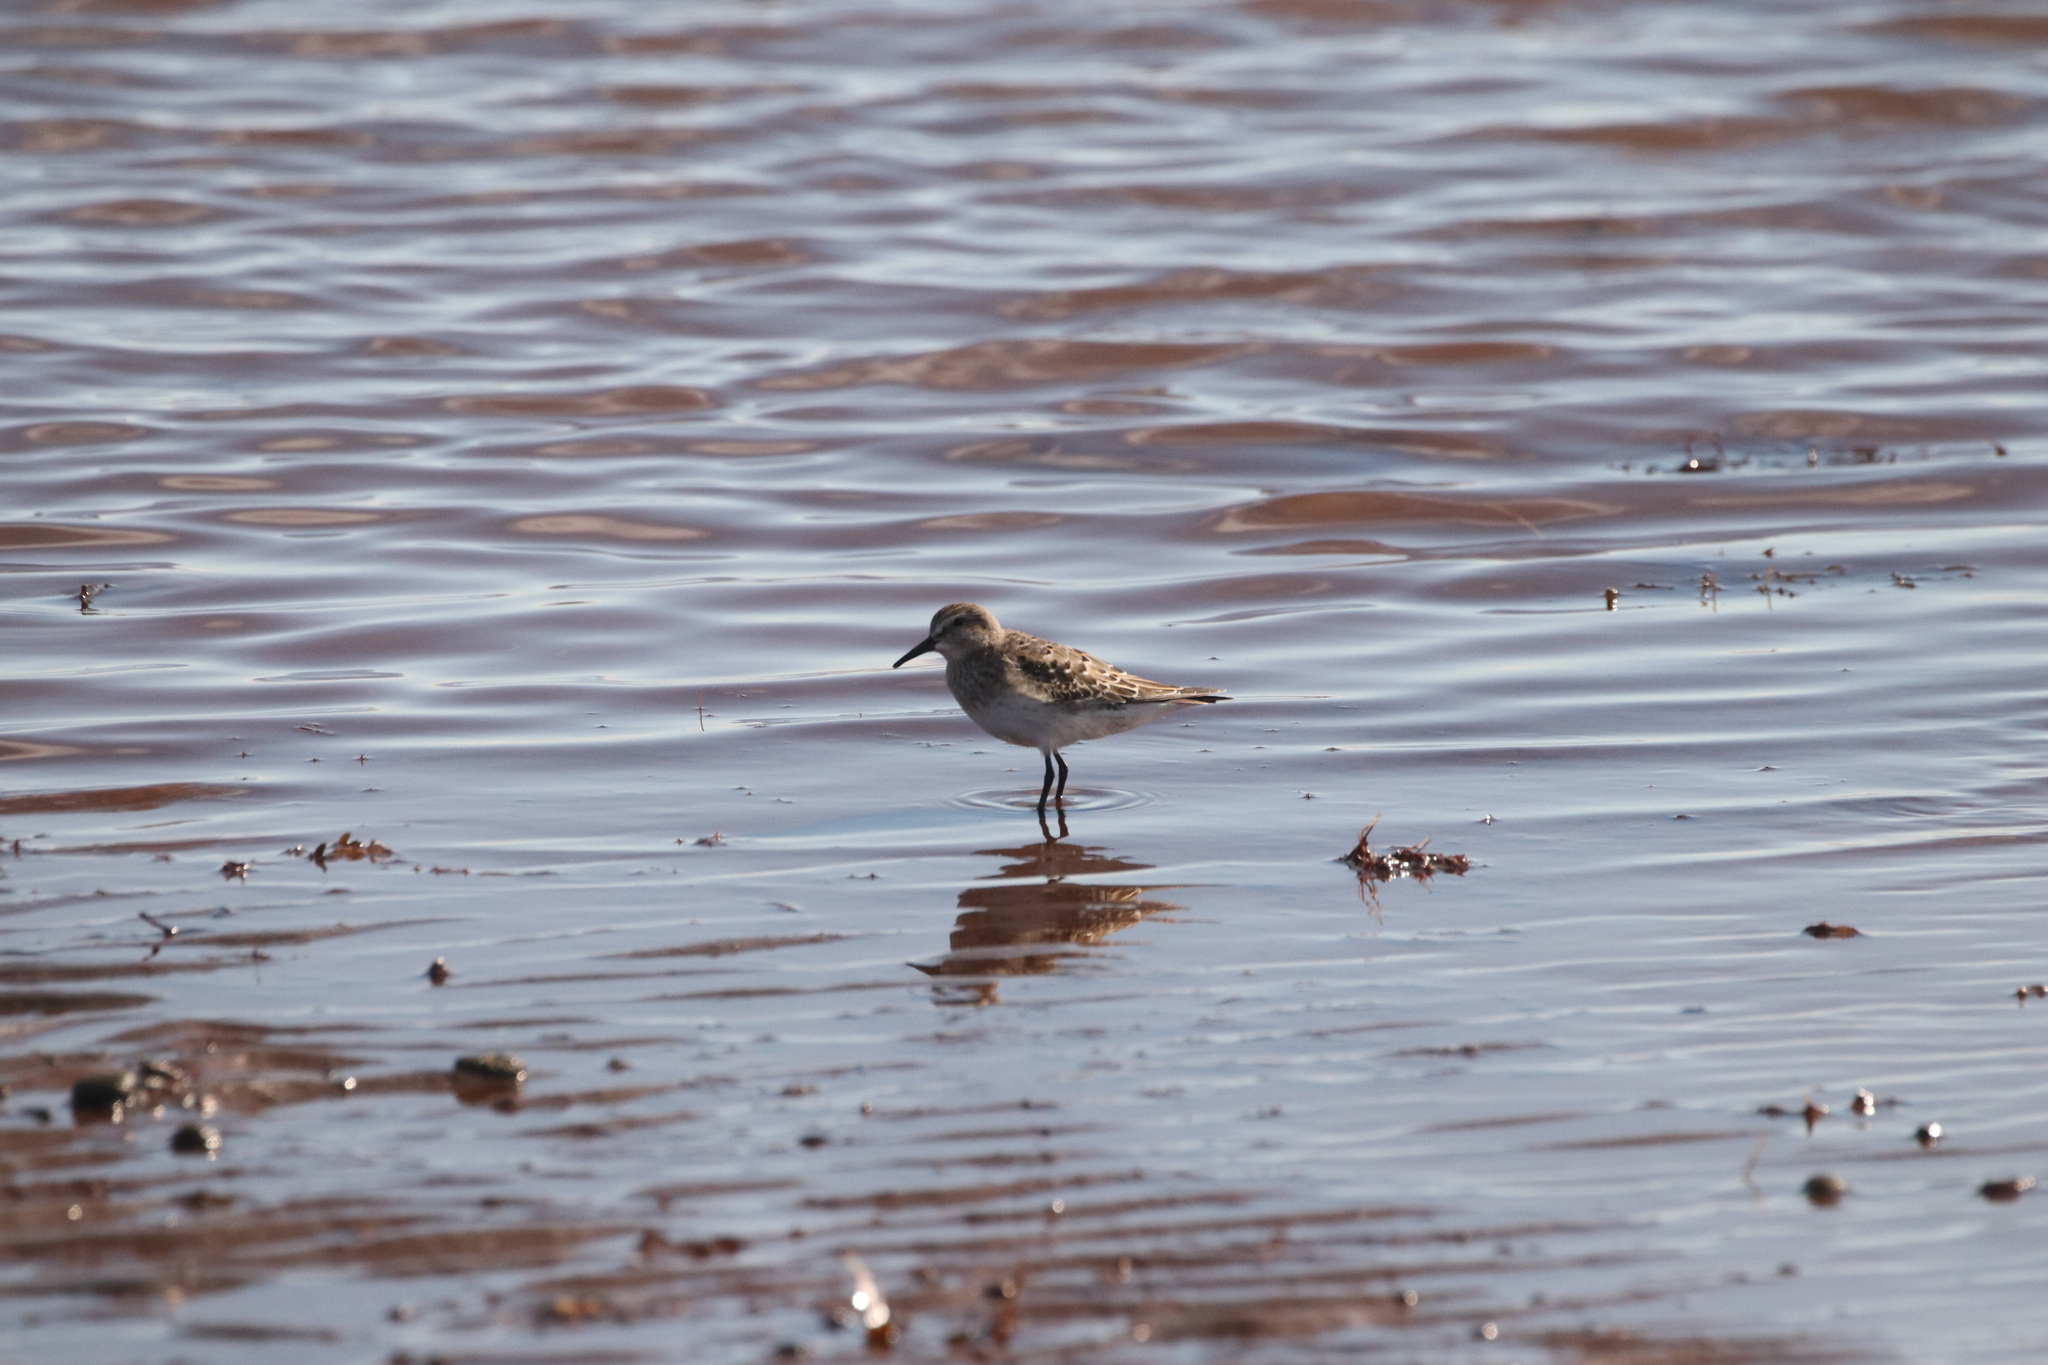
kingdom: Animalia
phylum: Chordata
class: Aves
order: Charadriiformes
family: Scolopacidae
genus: Calidris
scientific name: Calidris pusilla
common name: Semipalmated sandpiper
